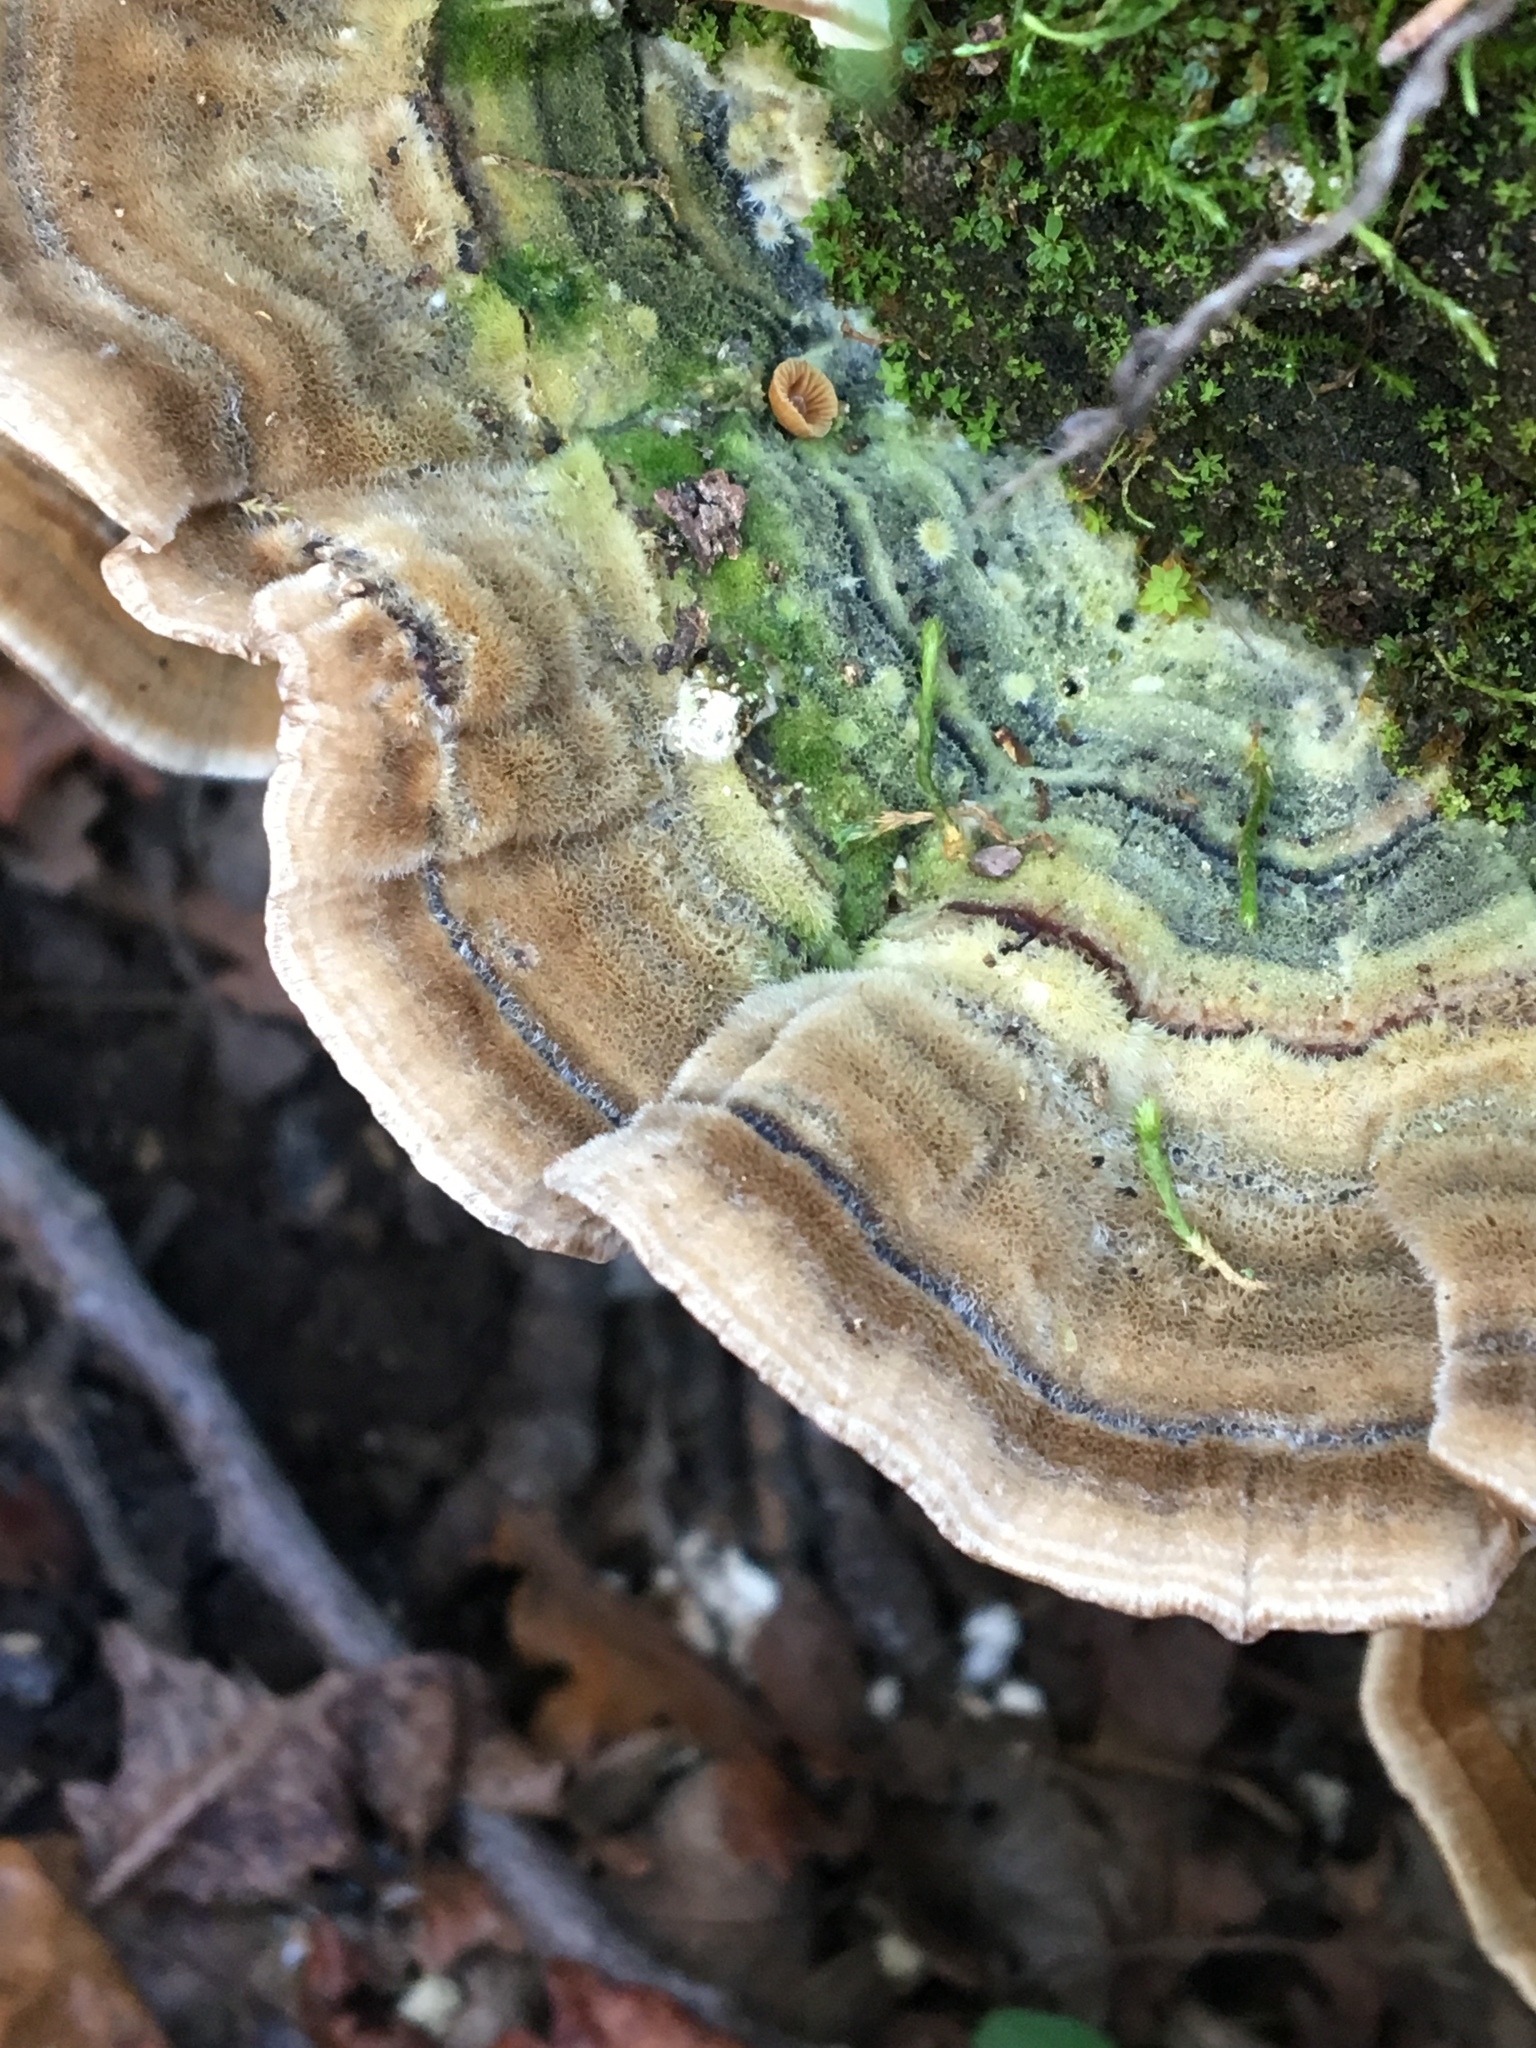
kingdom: Fungi
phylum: Basidiomycota
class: Agaricomycetes
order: Polyporales
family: Polyporaceae
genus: Trametes
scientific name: Trametes versicolor
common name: Turkeytail
